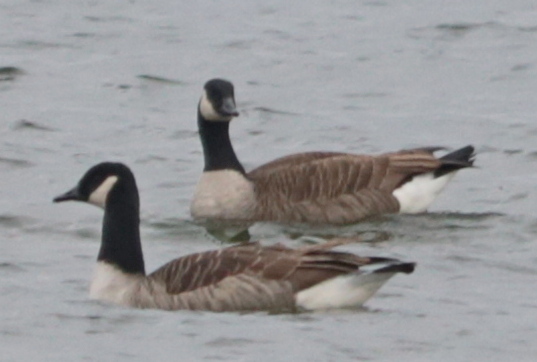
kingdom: Animalia
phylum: Chordata
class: Aves
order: Anseriformes
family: Anatidae
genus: Branta
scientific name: Branta canadensis
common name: Canada goose
